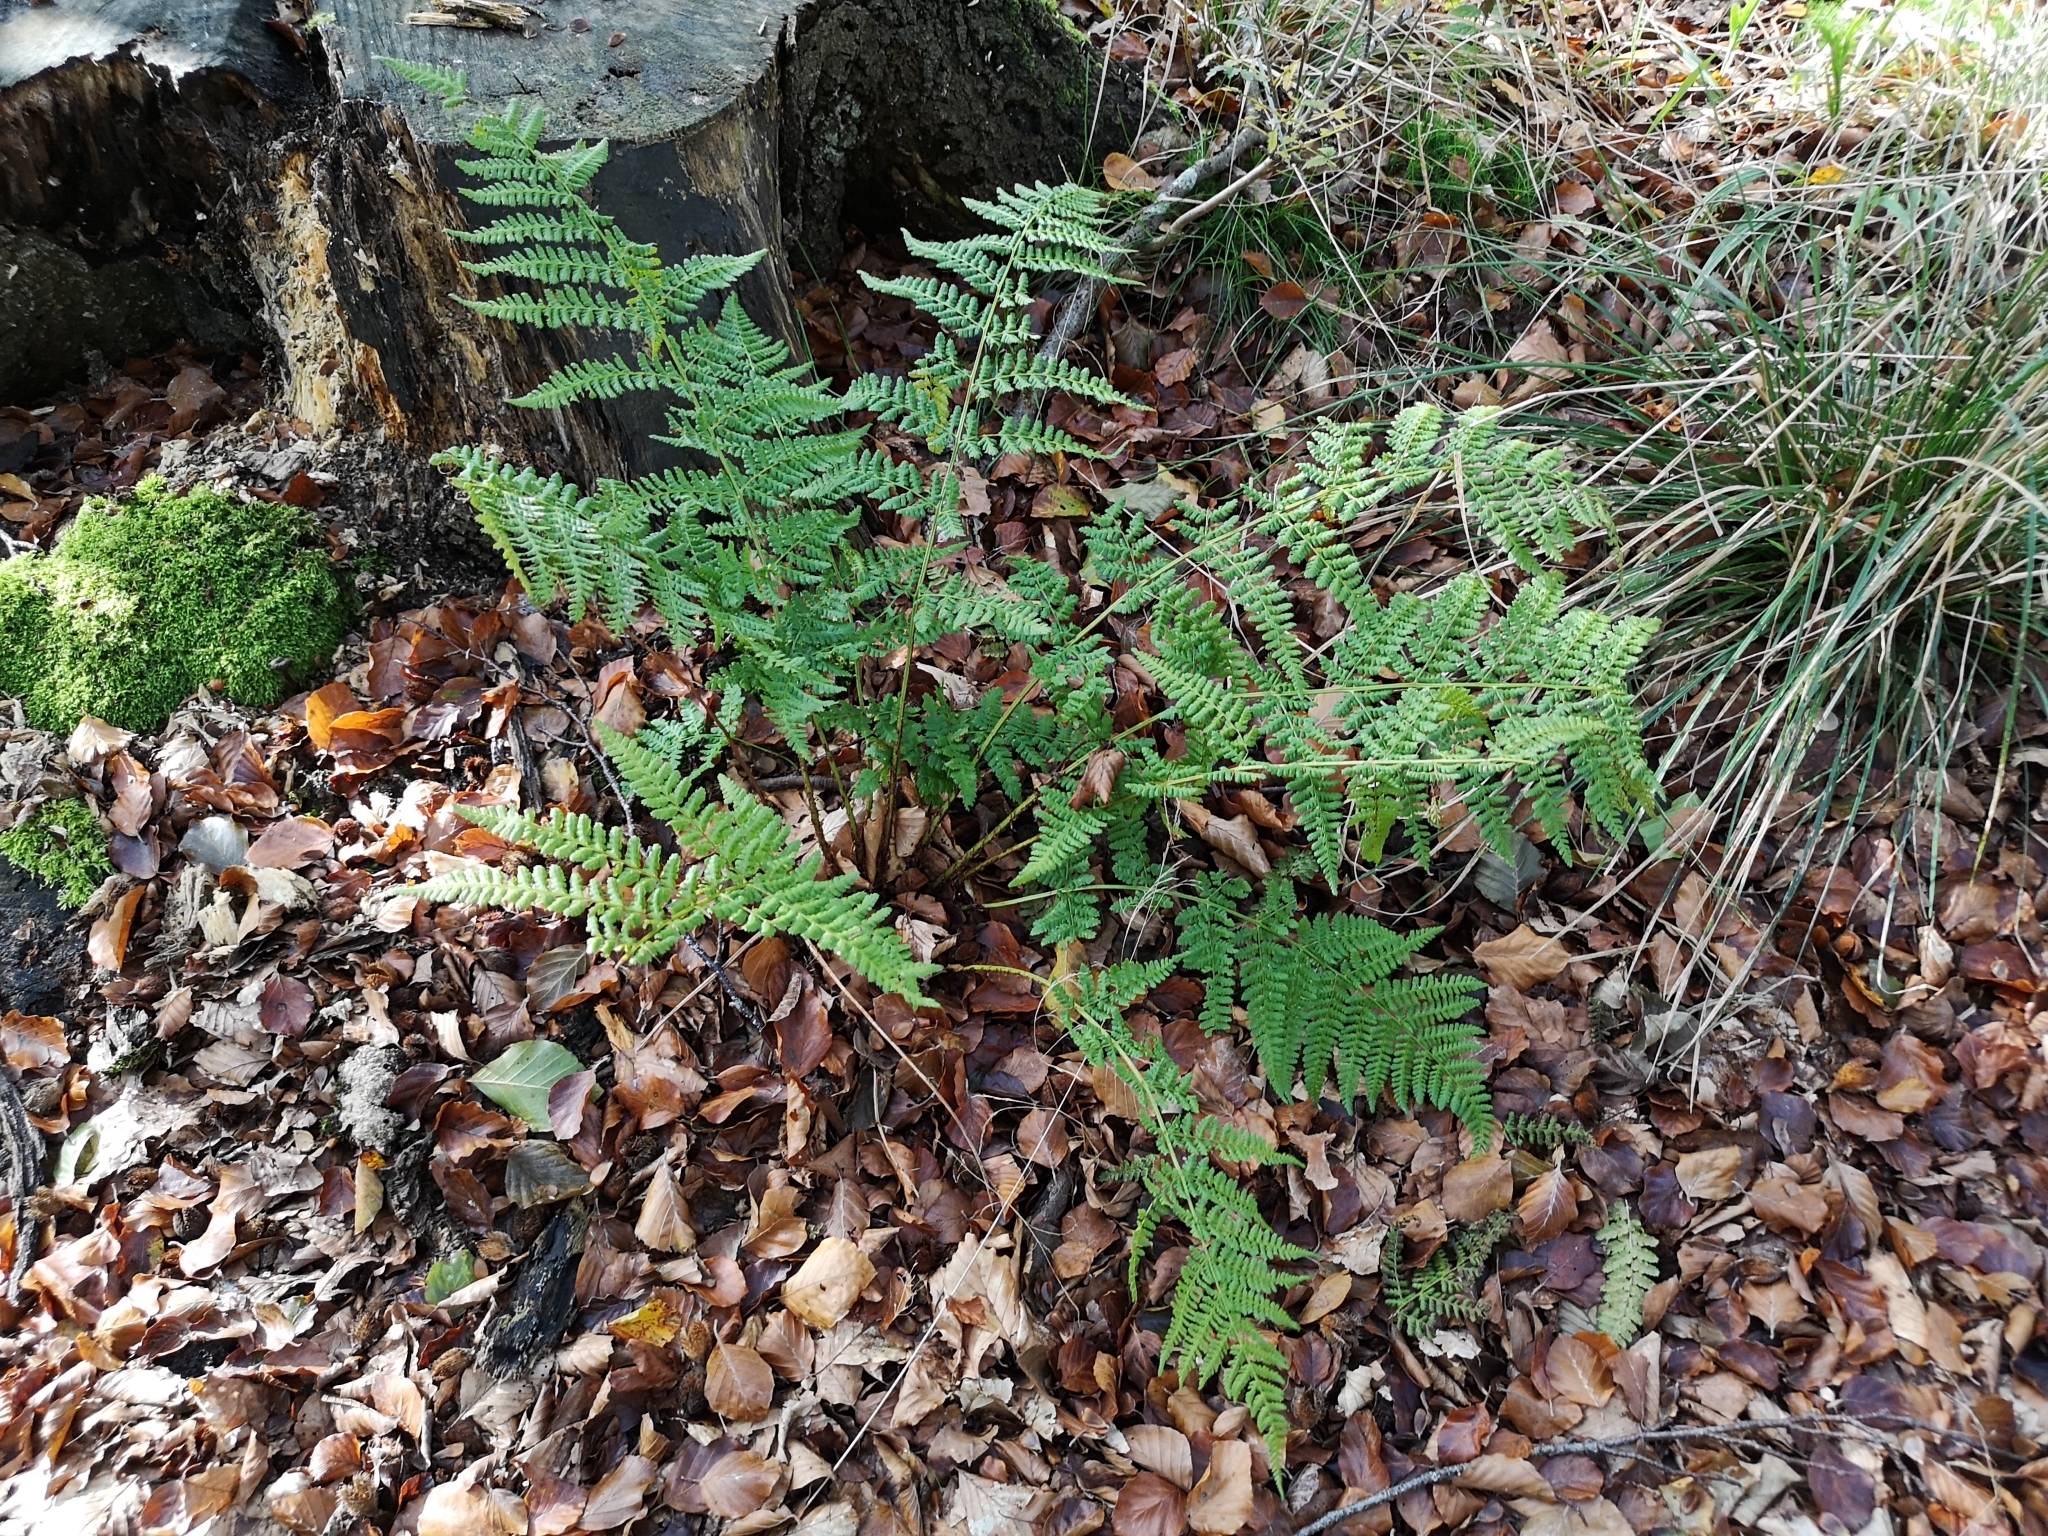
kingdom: Plantae
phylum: Tracheophyta
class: Polypodiopsida
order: Polypodiales
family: Athyriaceae
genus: Athyrium
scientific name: Athyrium filix-femina
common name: Lady fern
